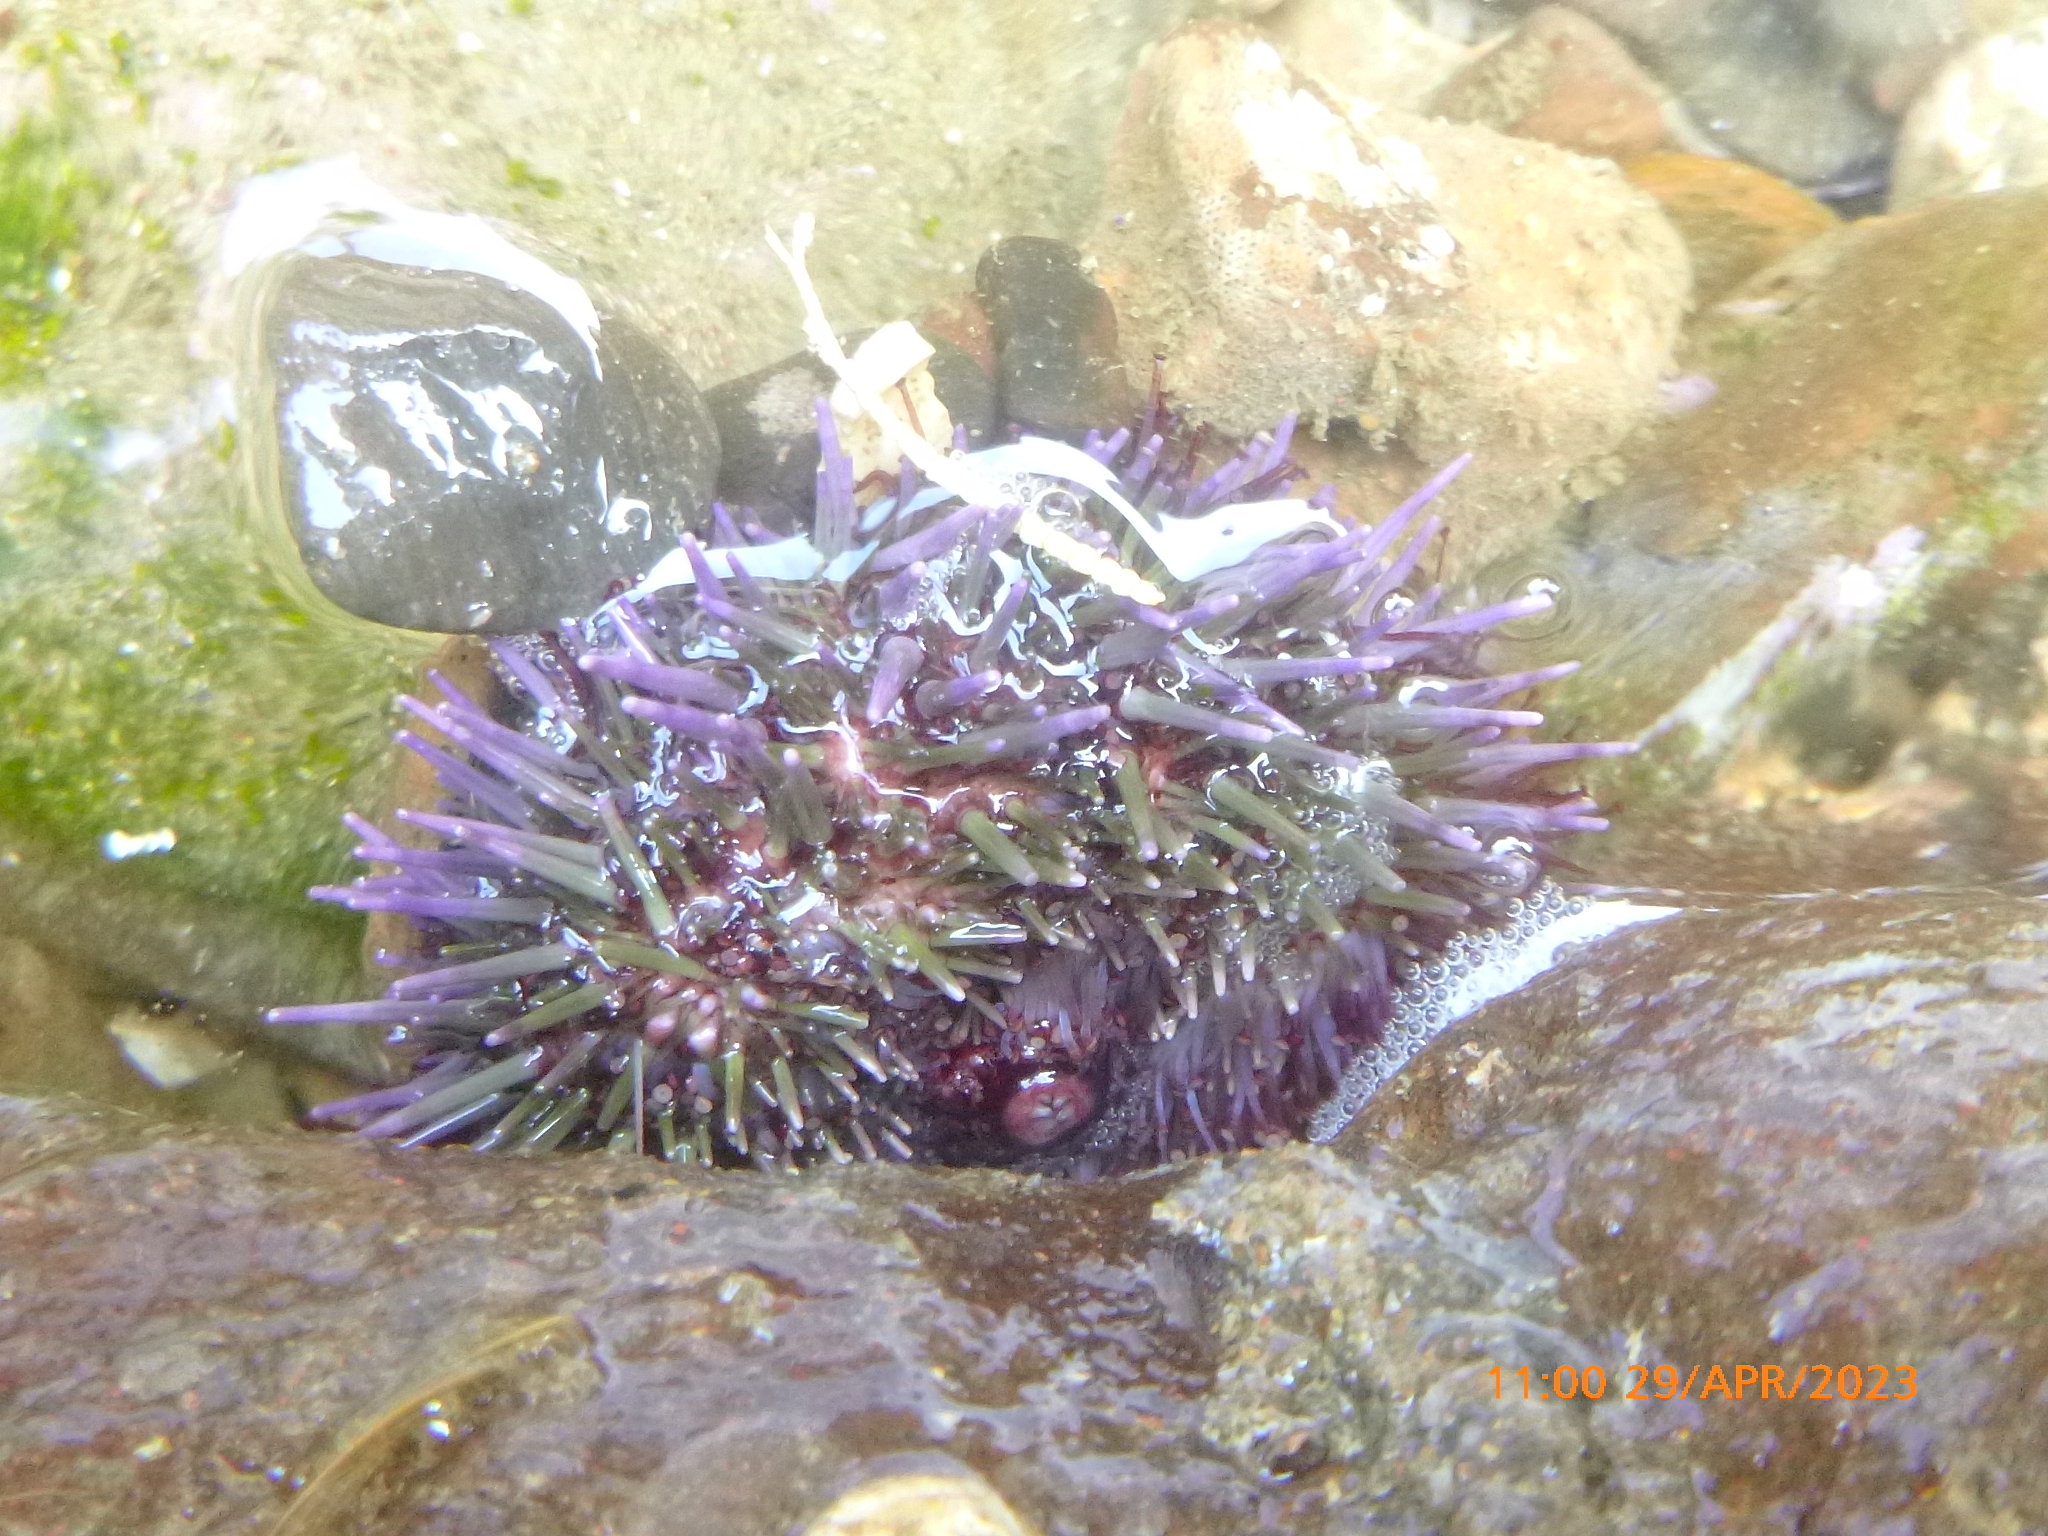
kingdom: Animalia
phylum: Echinodermata
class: Echinoidea
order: Camarodonta
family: Strongylocentrotidae
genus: Strongylocentrotus
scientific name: Strongylocentrotus purpuratus
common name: Purple sea urchin
